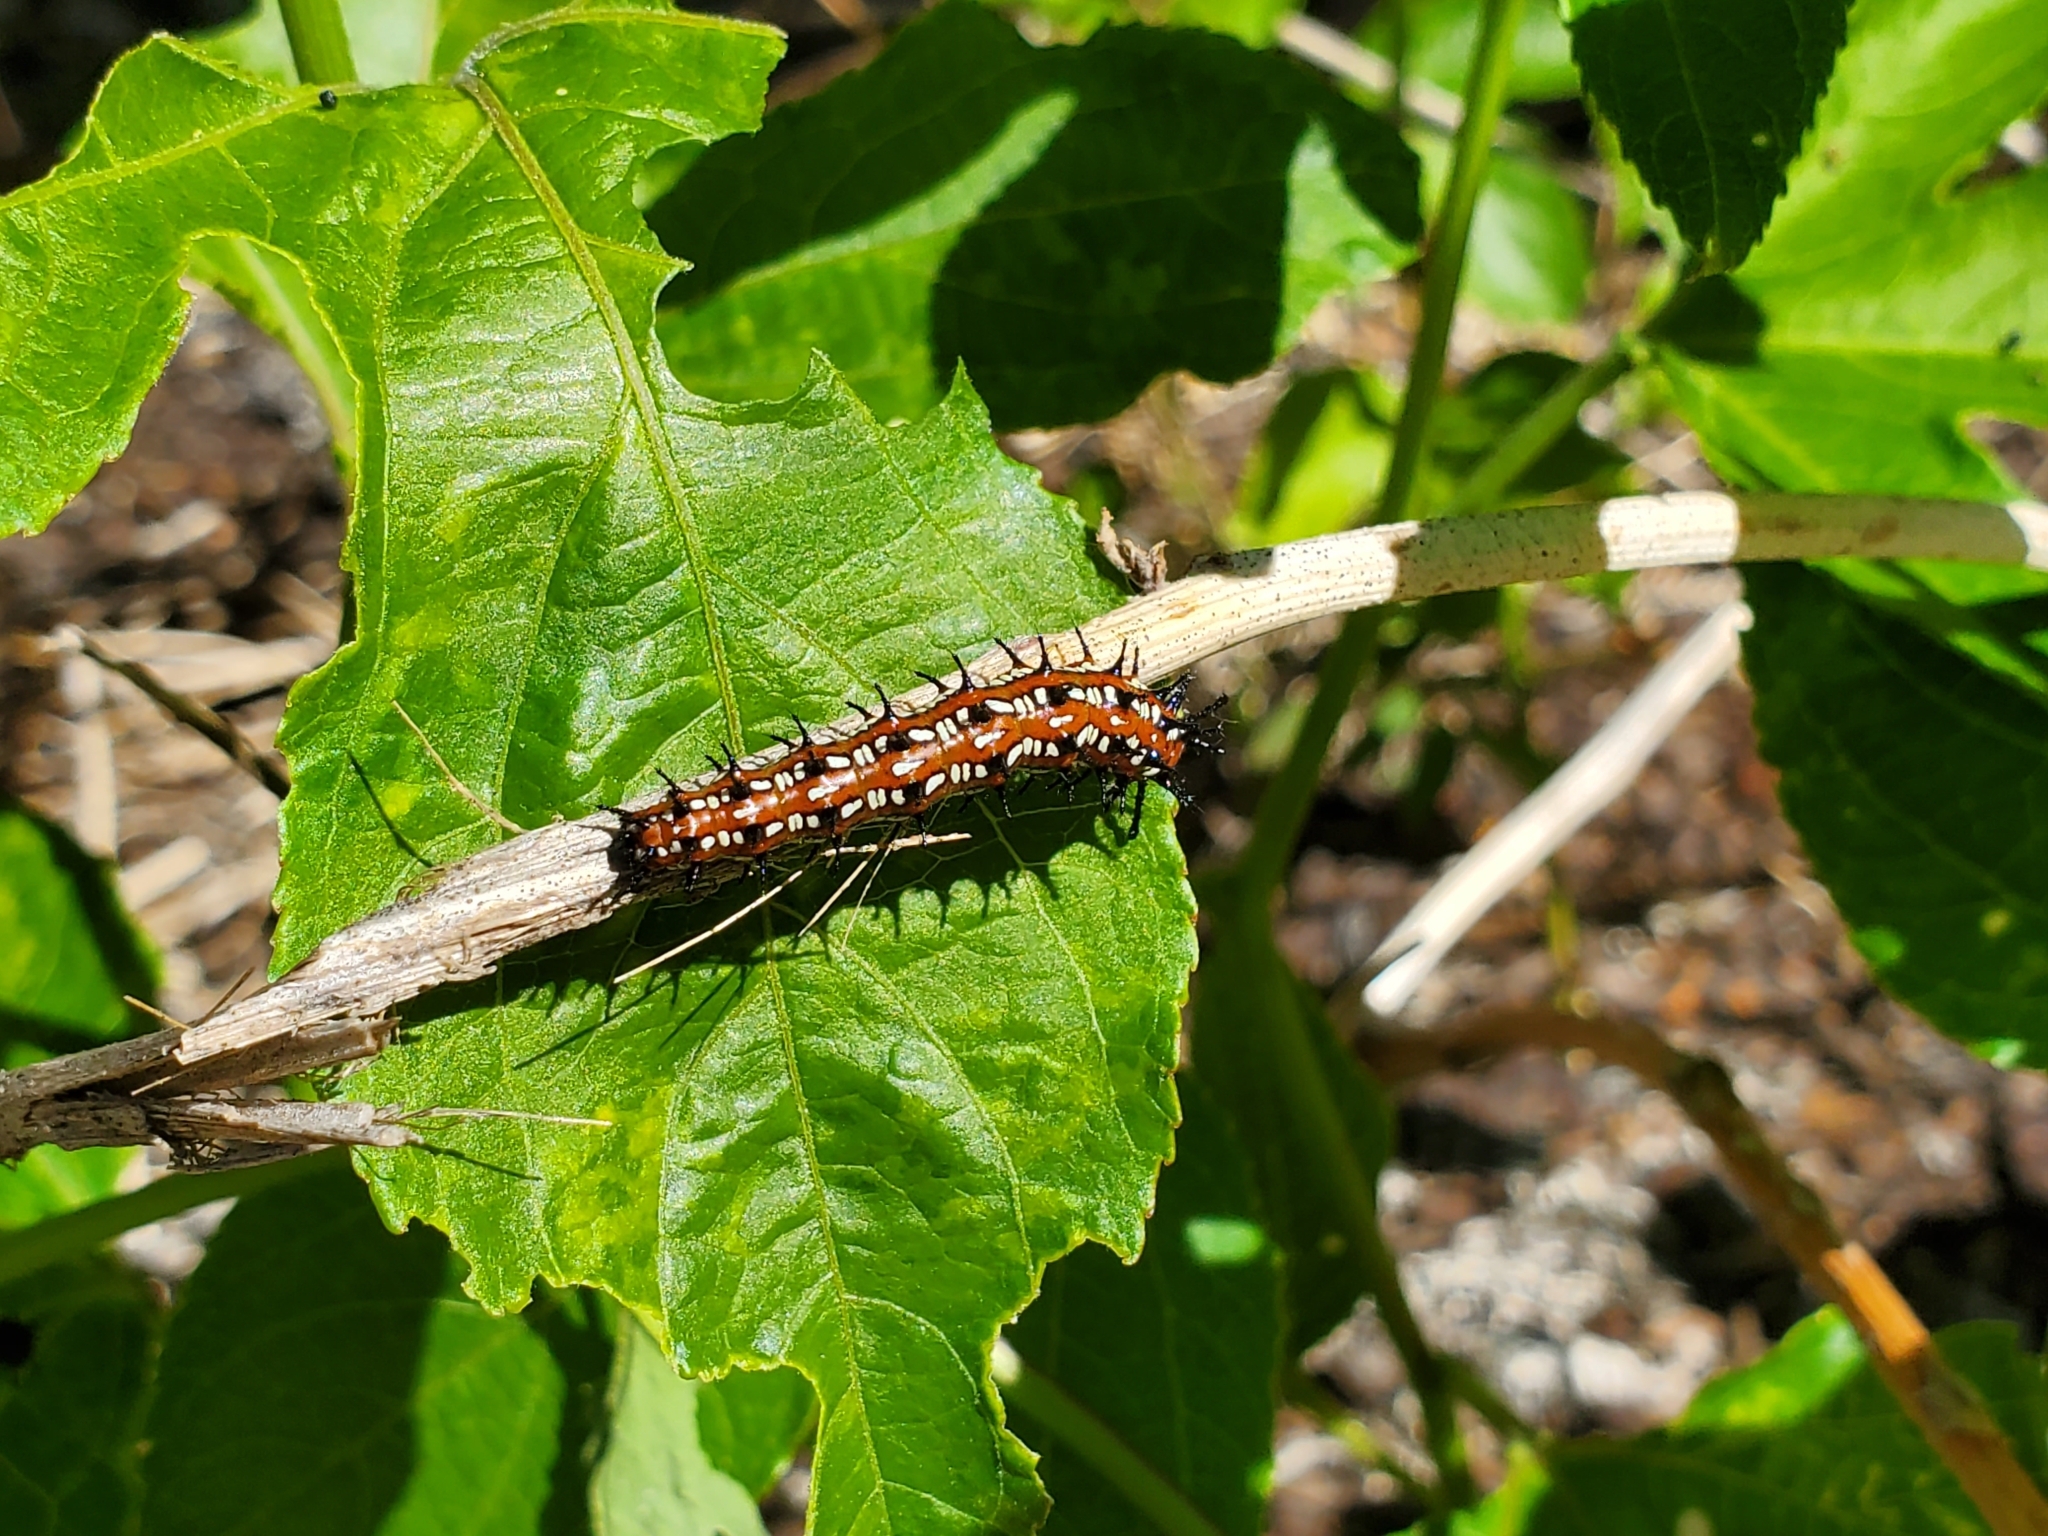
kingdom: Animalia
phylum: Arthropoda
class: Insecta
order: Lepidoptera
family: Nymphalidae
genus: Euptoieta
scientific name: Euptoieta claudia
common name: Variegated fritillary
